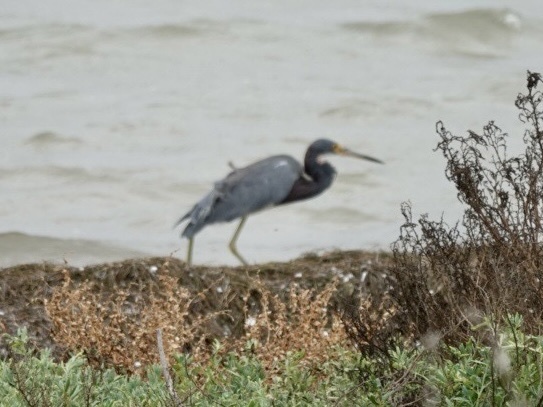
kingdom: Animalia
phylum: Chordata
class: Aves
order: Pelecaniformes
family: Ardeidae
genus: Egretta
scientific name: Egretta tricolor
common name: Tricolored heron
